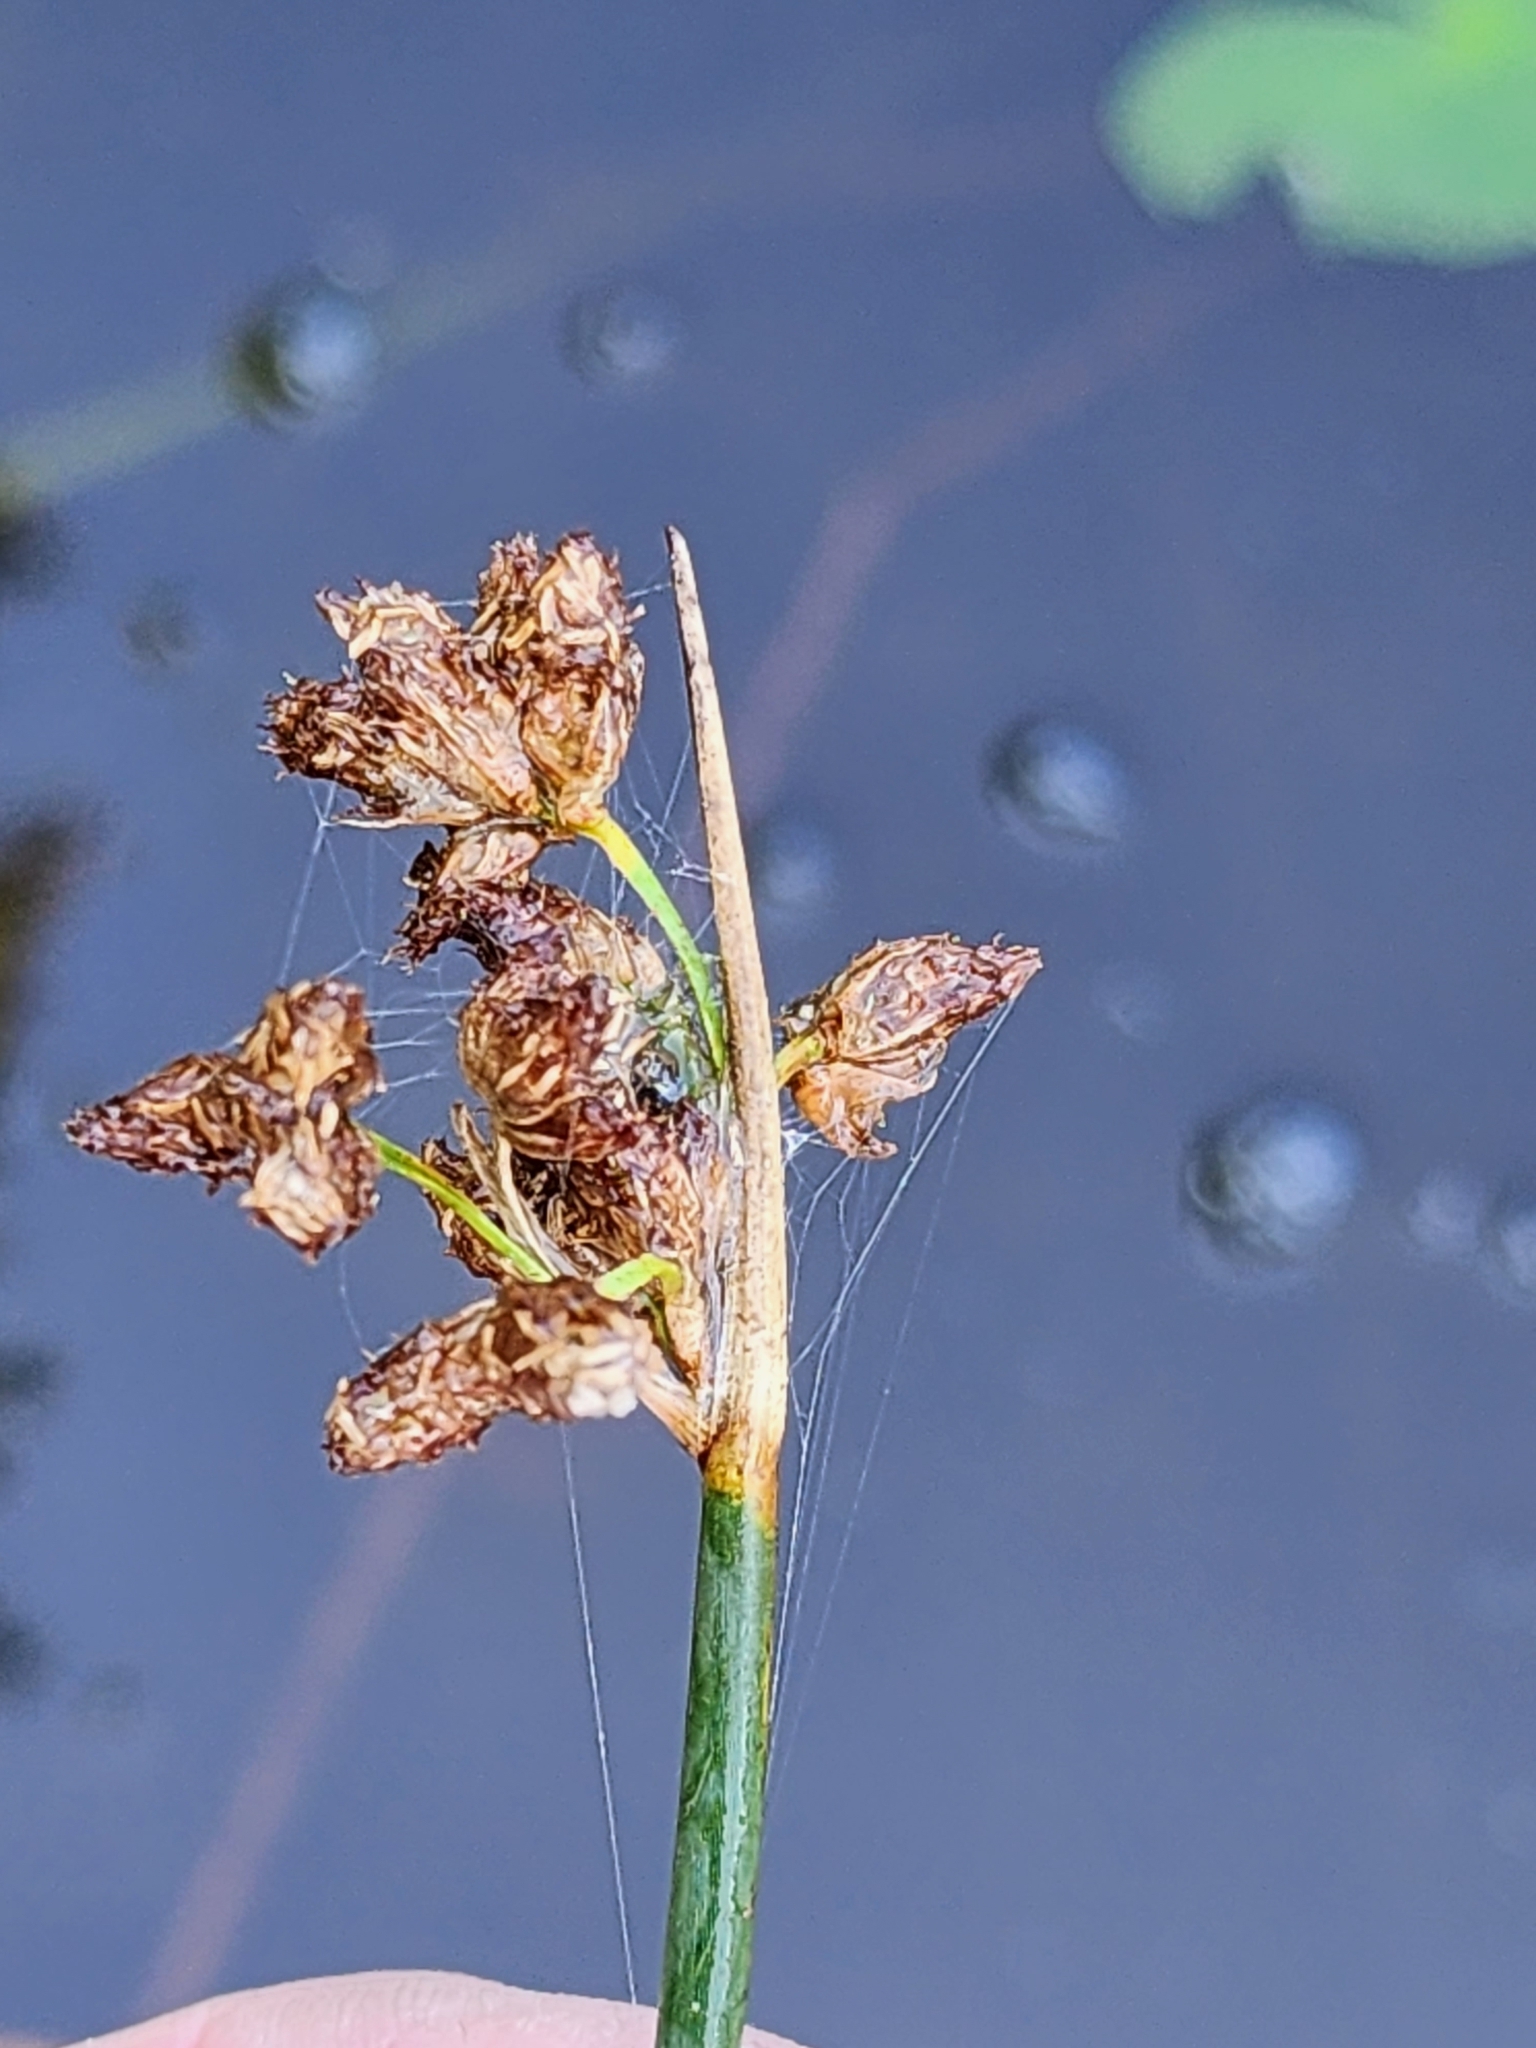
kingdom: Plantae
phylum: Tracheophyta
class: Liliopsida
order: Poales
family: Cyperaceae
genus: Schoenoplectus
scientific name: Schoenoplectus acutus
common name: Hardstem bulrush
